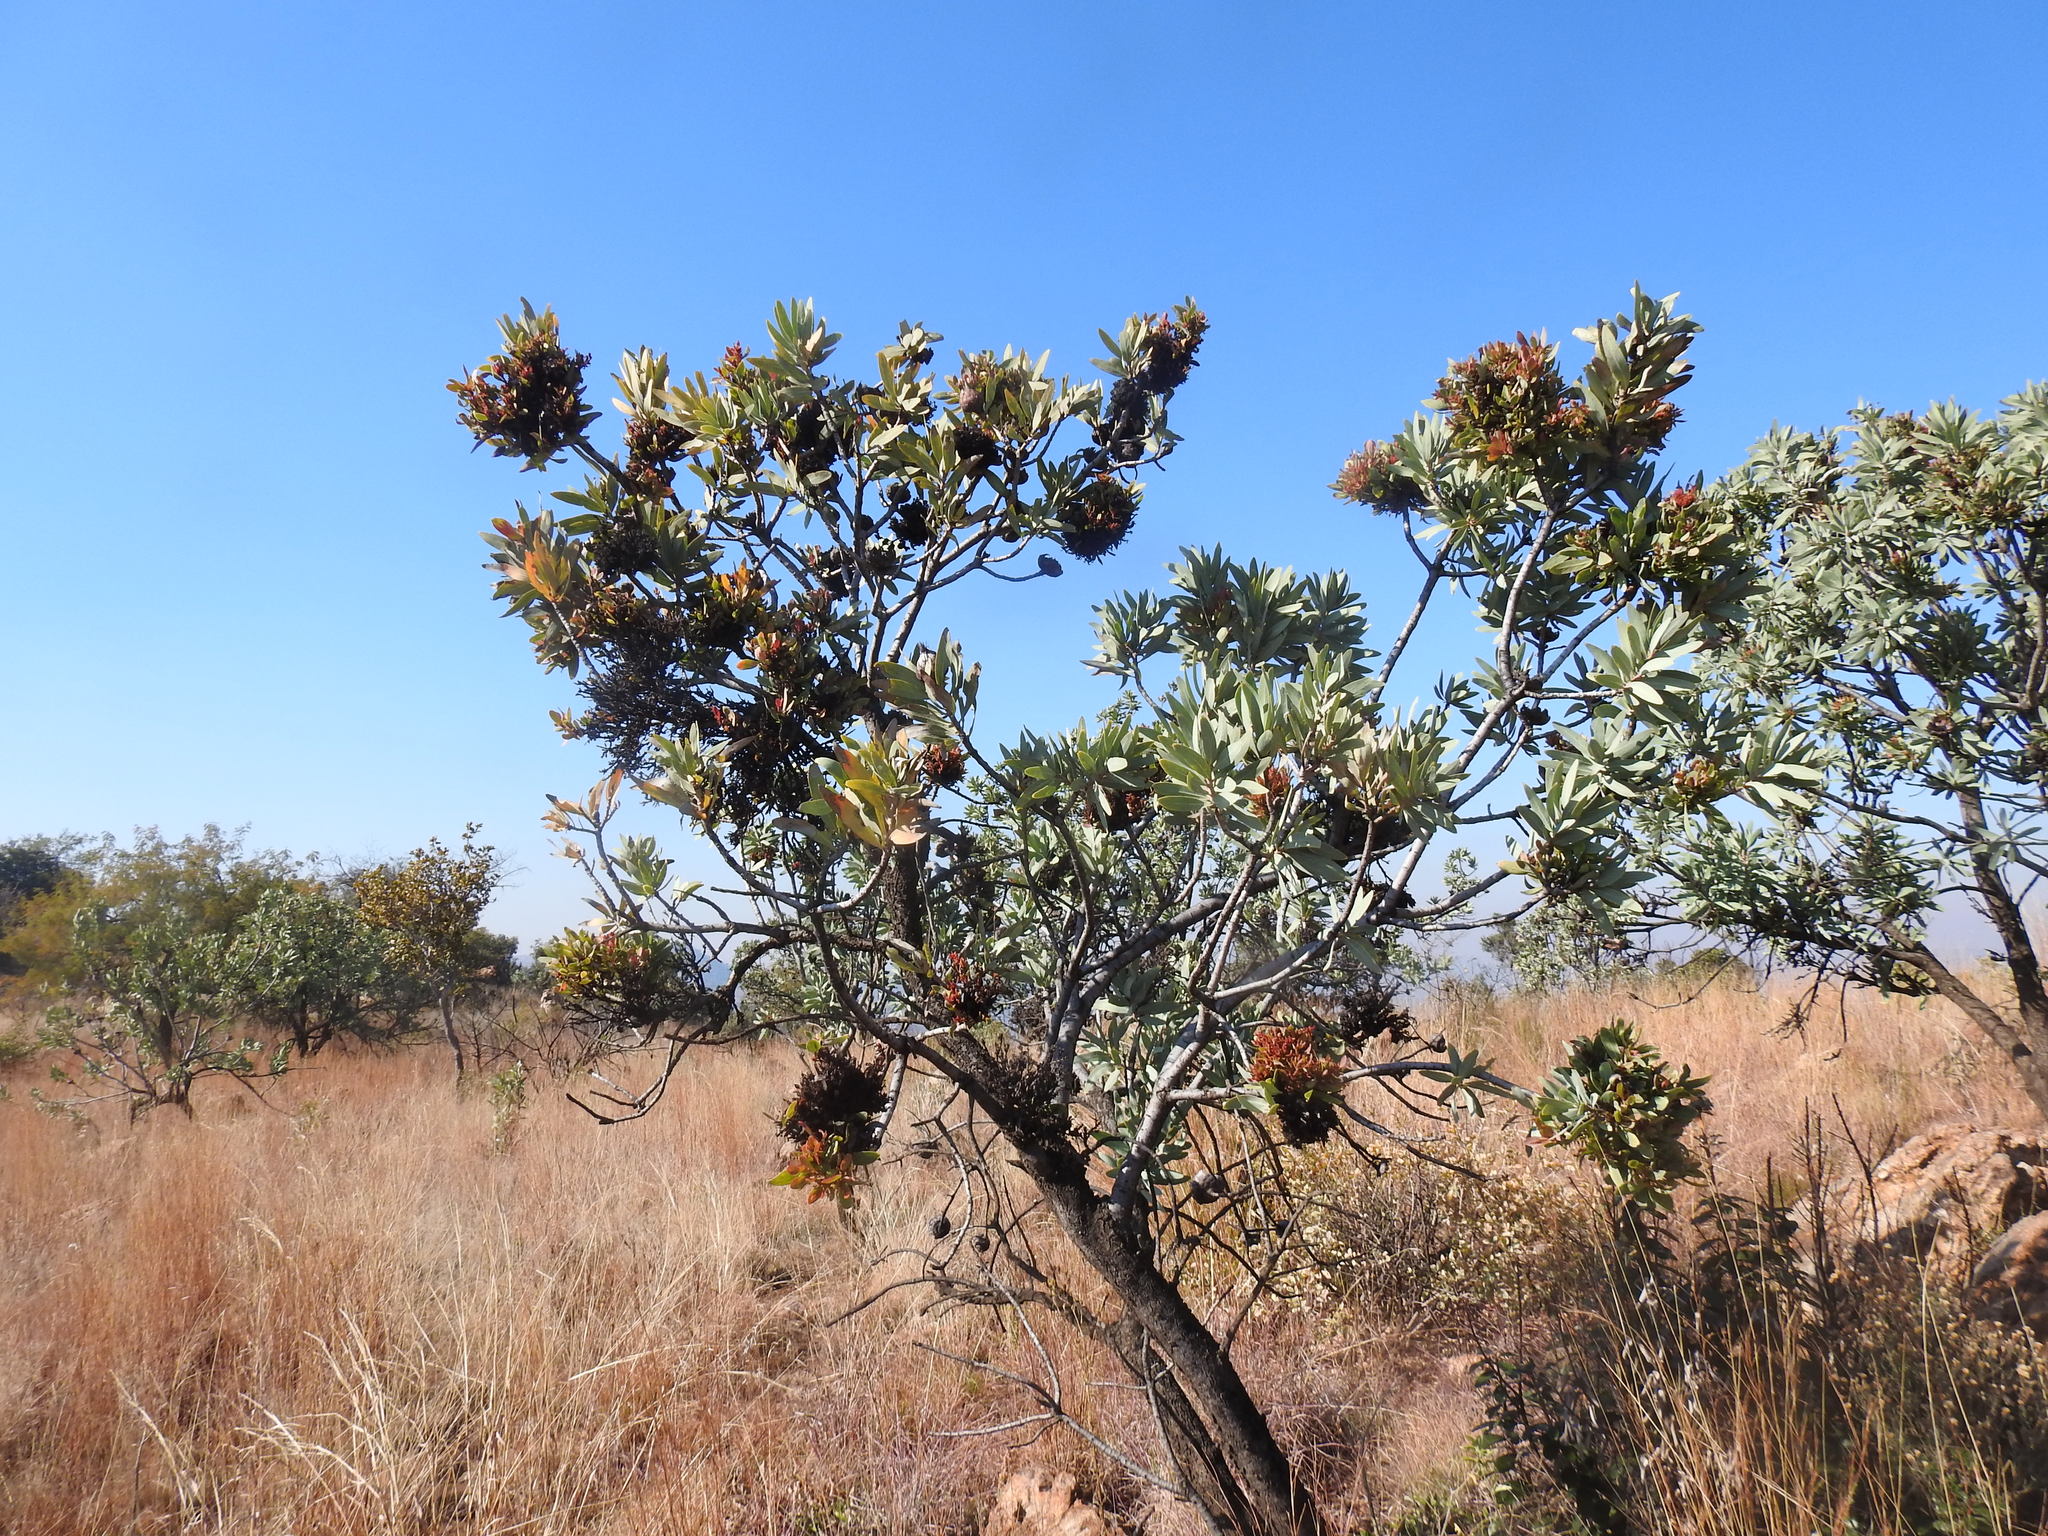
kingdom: Plantae
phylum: Tracheophyta
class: Magnoliopsida
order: Proteales
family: Proteaceae
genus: Protea
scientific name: Protea caffra
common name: Common sugarbush
